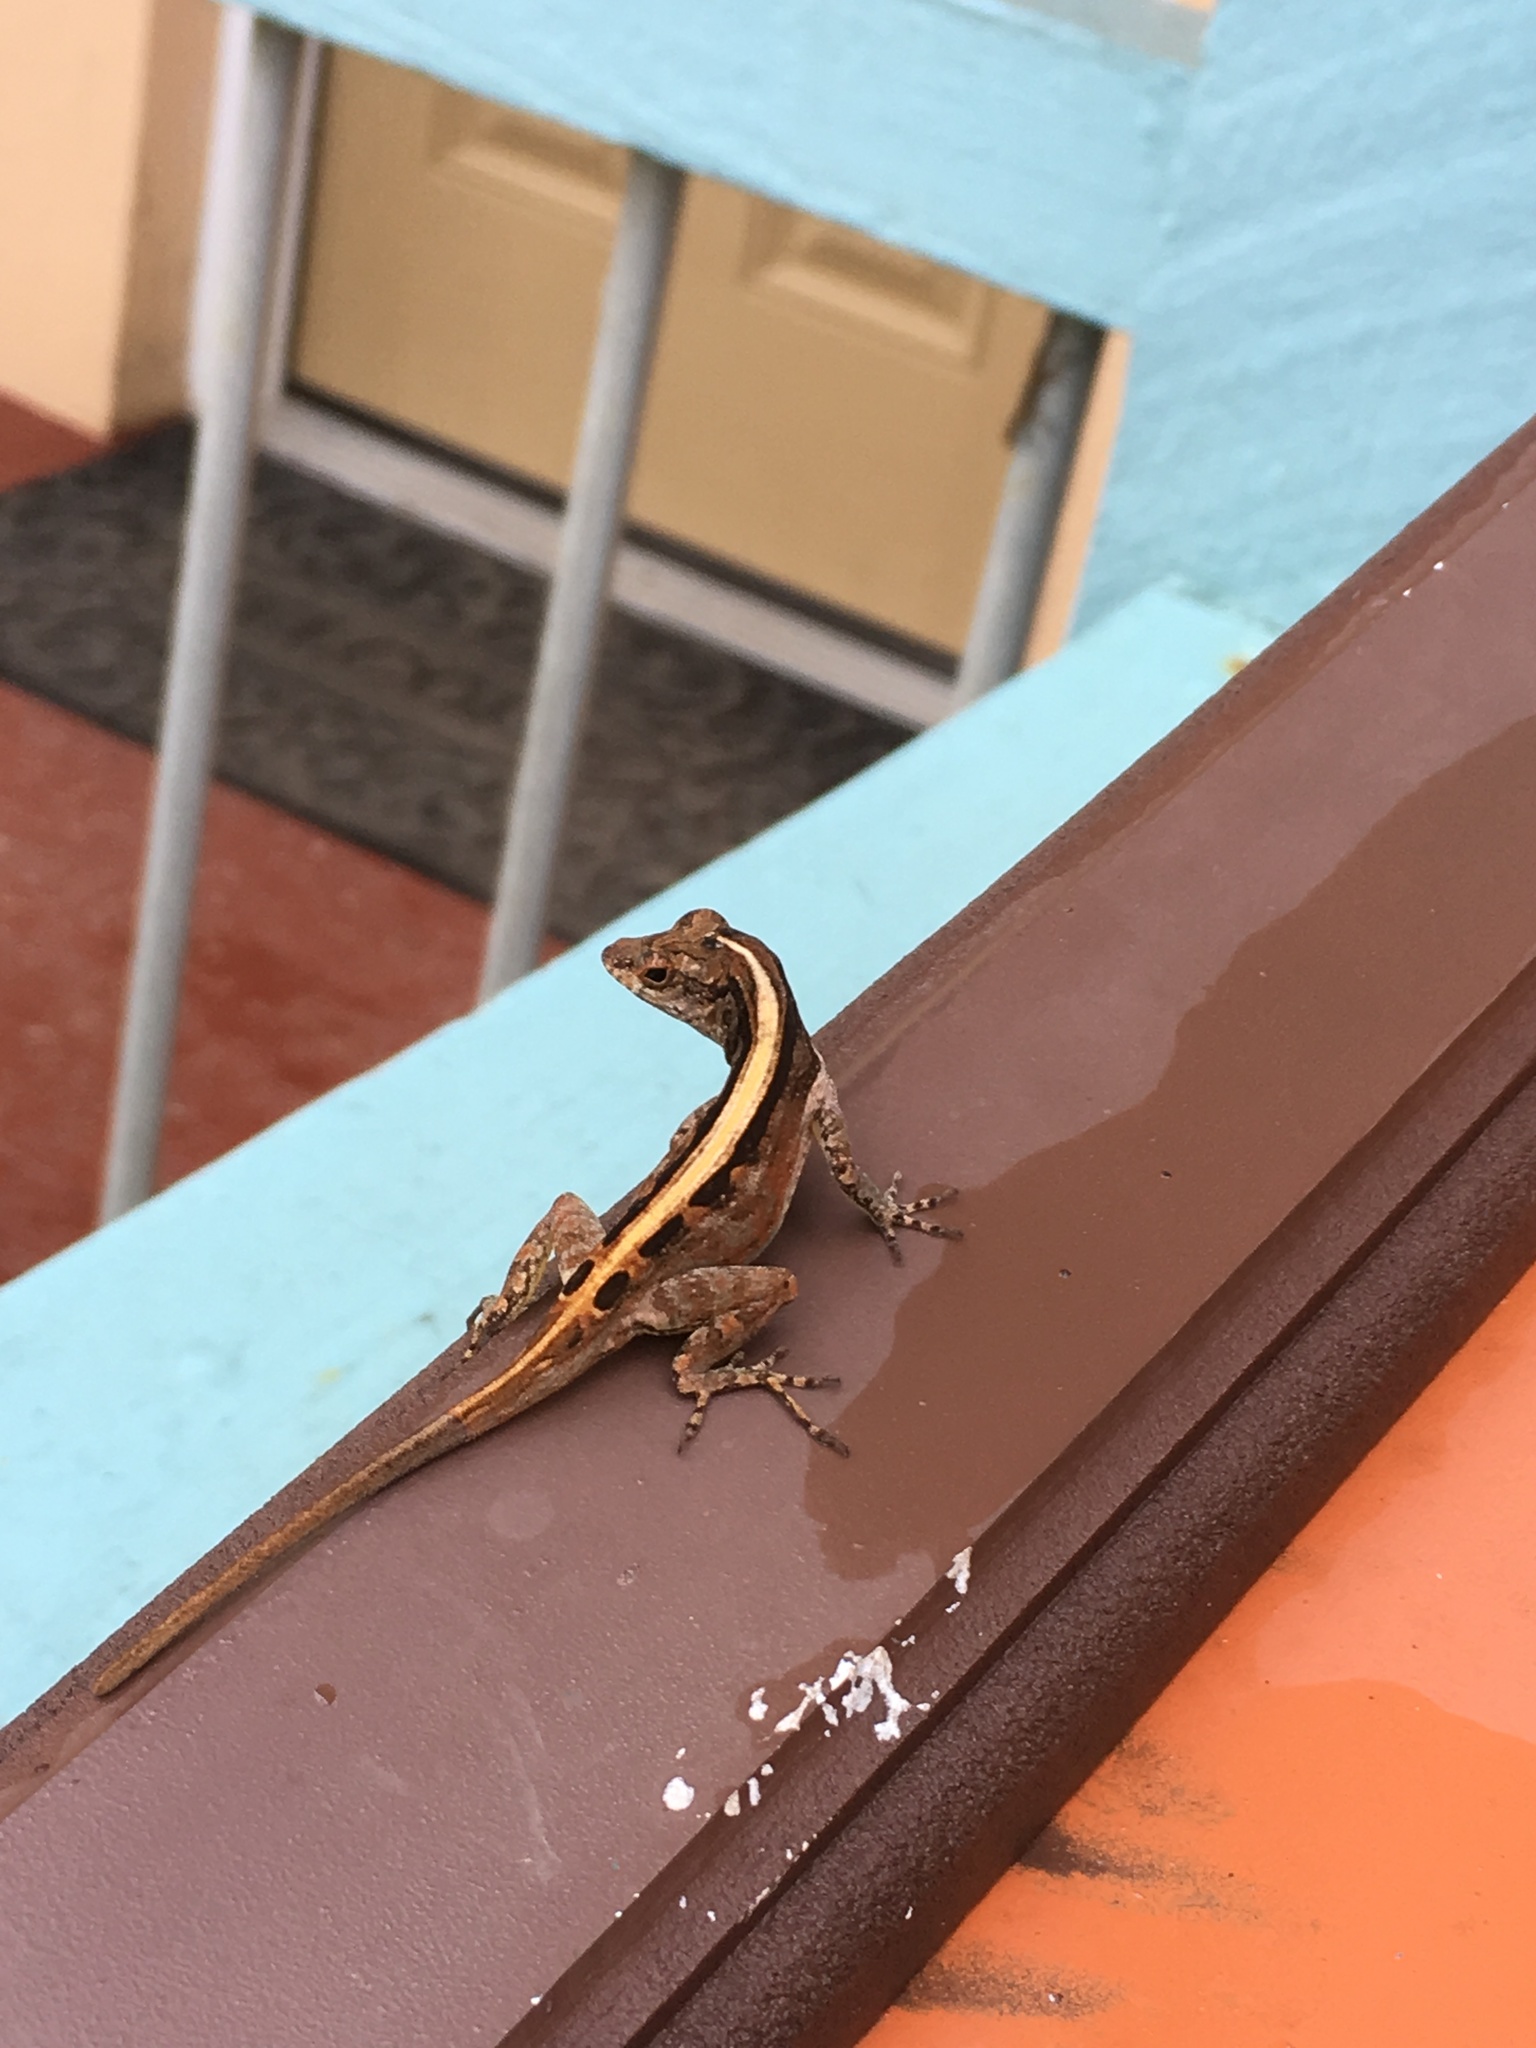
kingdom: Animalia
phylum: Chordata
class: Squamata
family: Dactyloidae
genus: Anolis
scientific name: Anolis sagrei
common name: Brown anole
